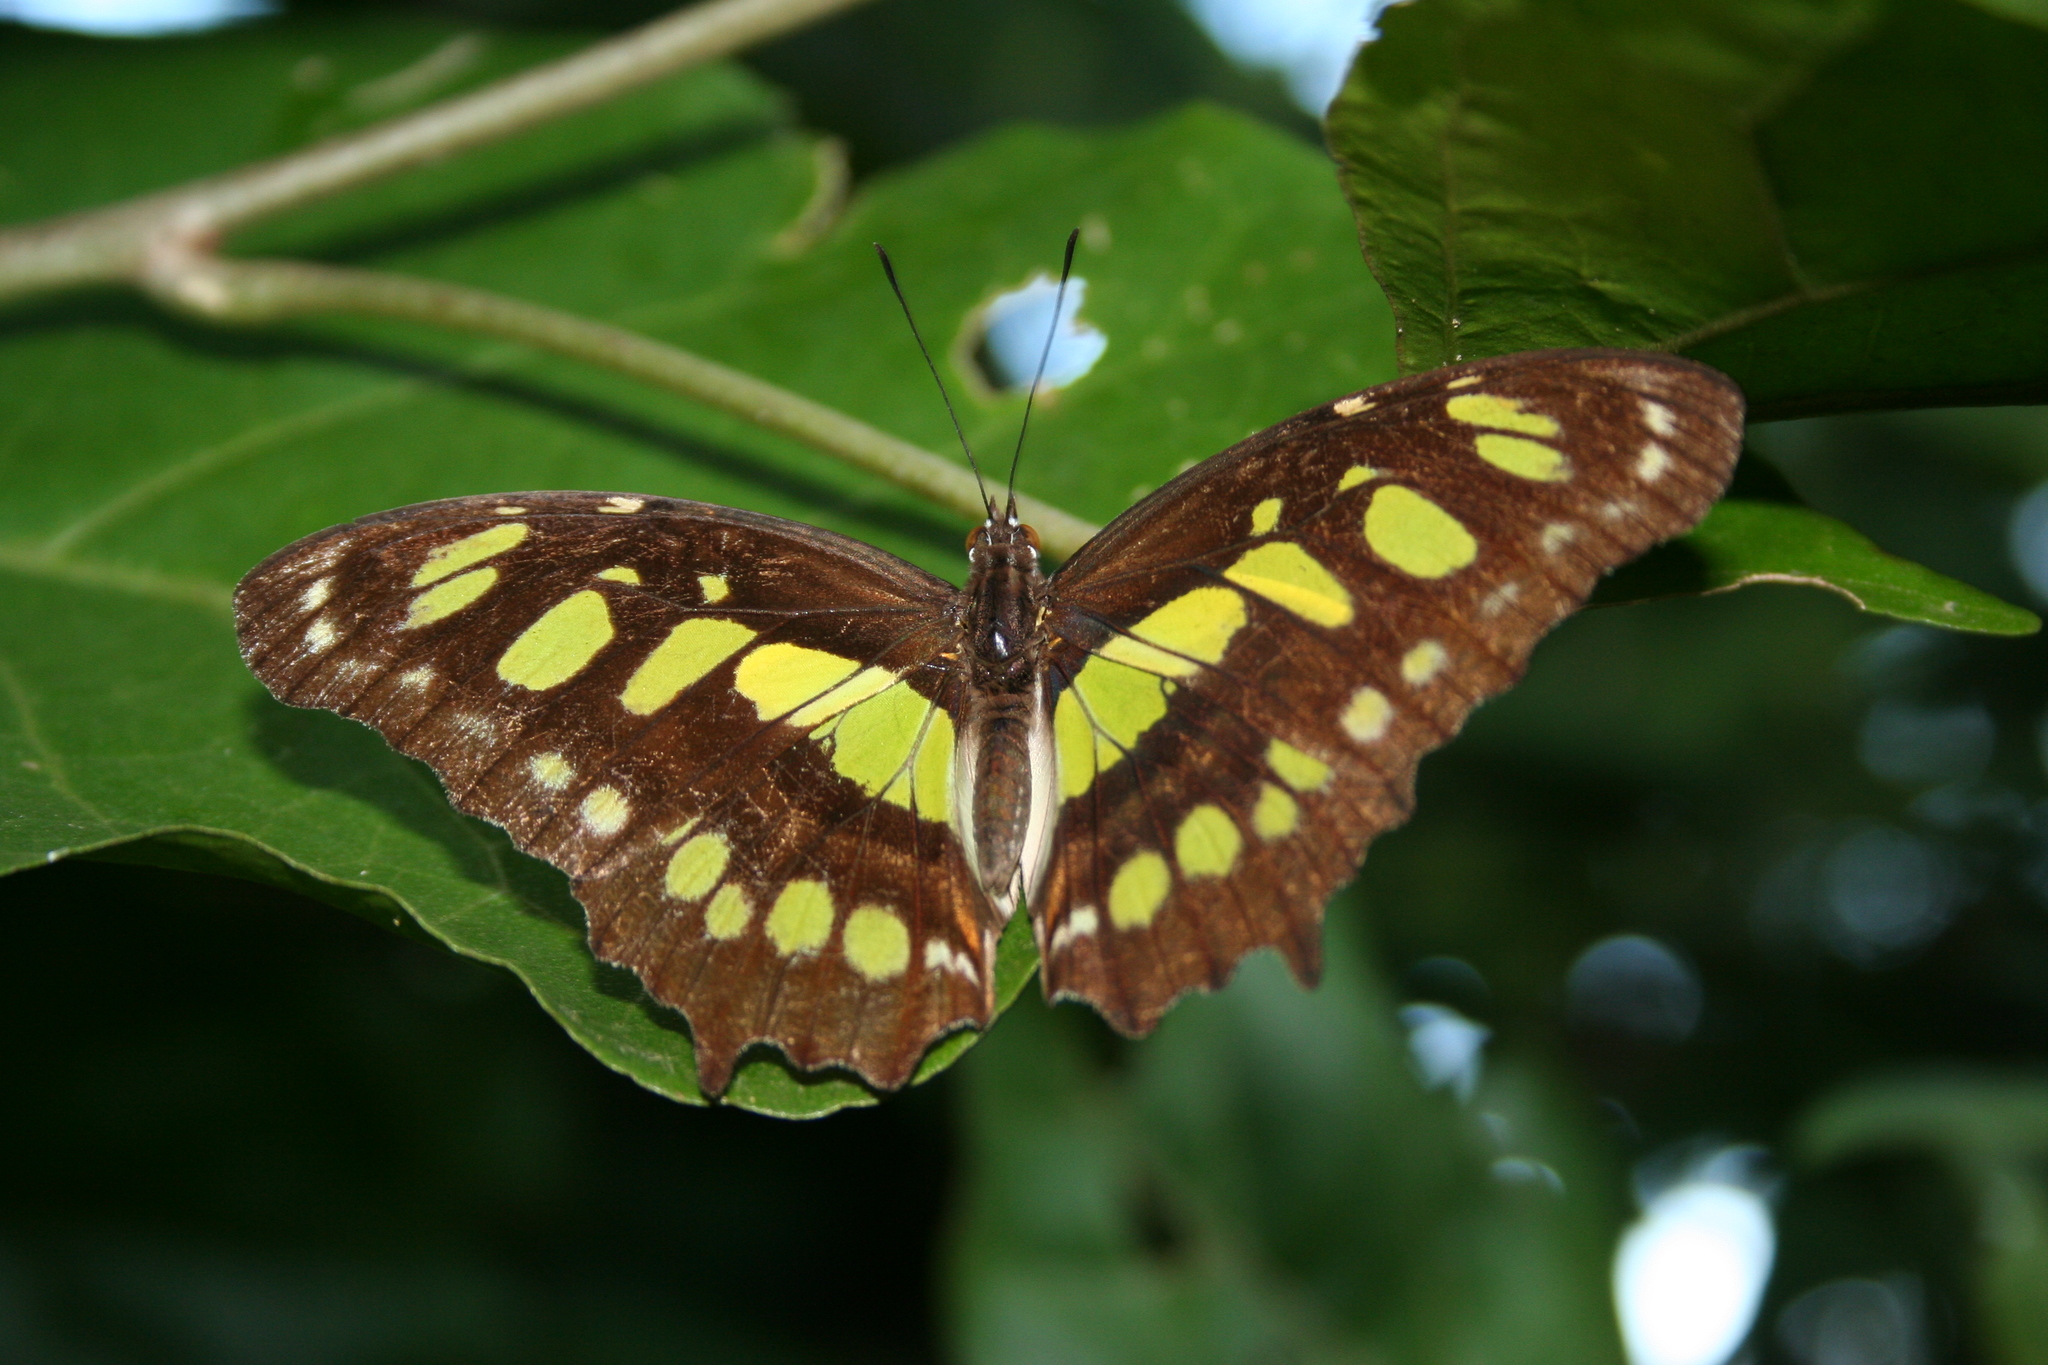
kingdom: Animalia
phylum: Arthropoda
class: Insecta
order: Lepidoptera
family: Nymphalidae
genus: Siproeta
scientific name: Siproeta stelenes
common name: Malachite
